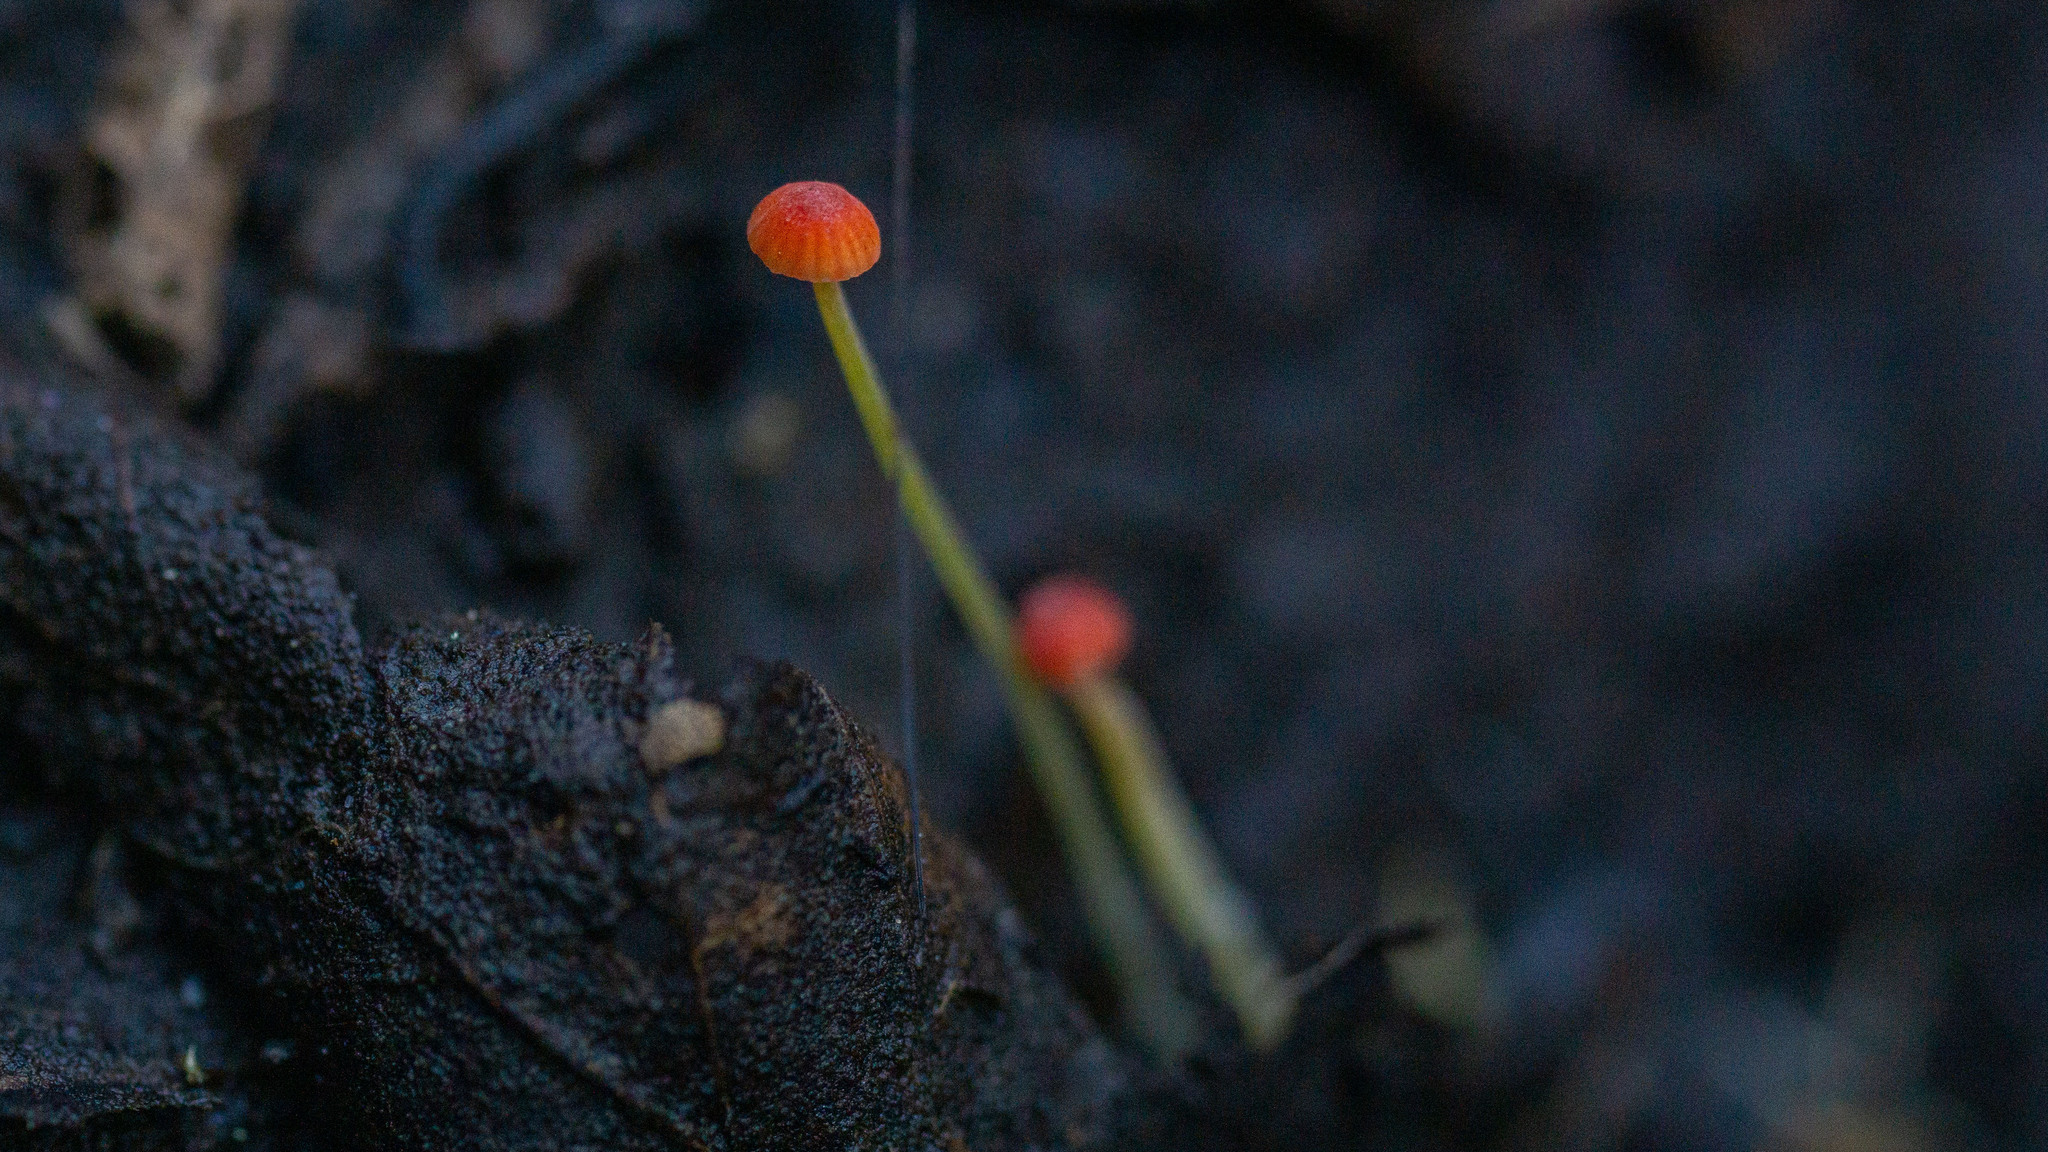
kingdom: Fungi
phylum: Basidiomycota
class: Agaricomycetes
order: Agaricales
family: Mycenaceae
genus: Mycena
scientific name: Mycena acicula
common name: Orange bonnet
